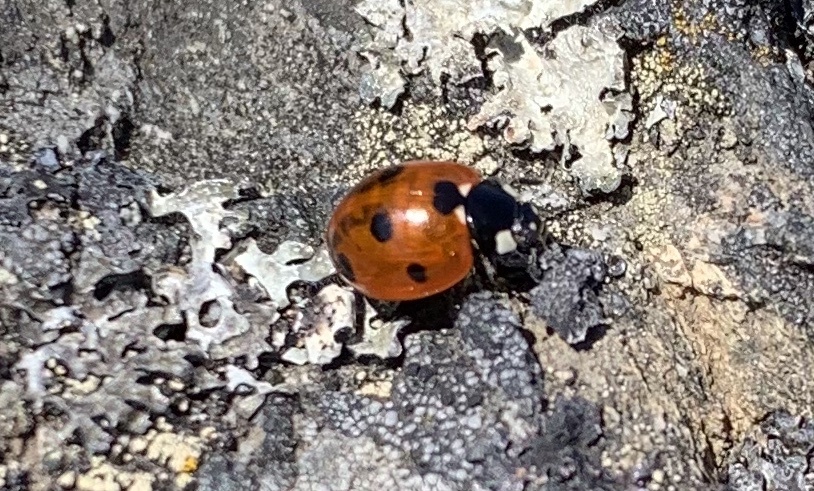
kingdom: Animalia
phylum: Arthropoda
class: Insecta
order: Coleoptera
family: Coccinellidae
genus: Coccinella
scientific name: Coccinella septempunctata
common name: Sevenspotted lady beetle
